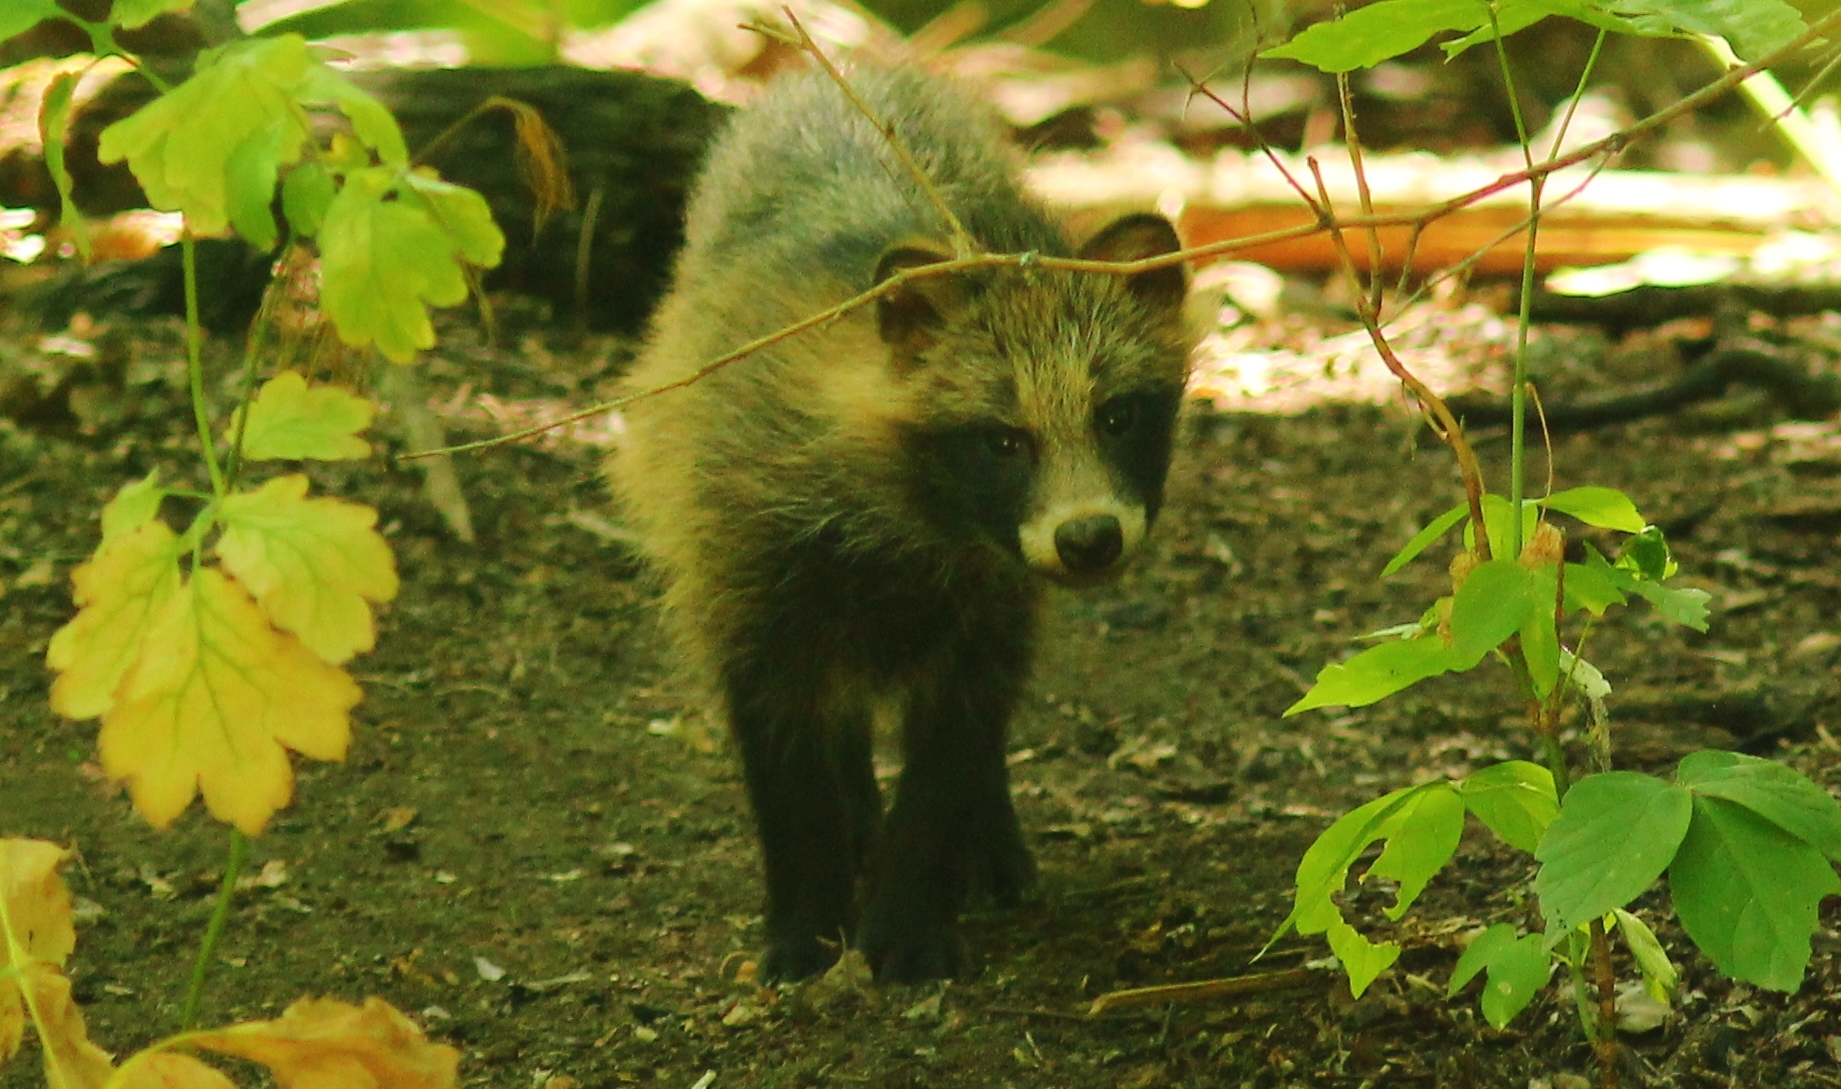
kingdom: Animalia
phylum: Chordata
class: Mammalia
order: Carnivora
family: Canidae
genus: Nyctereutes
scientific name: Nyctereutes procyonoides
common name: Raccoon dog
